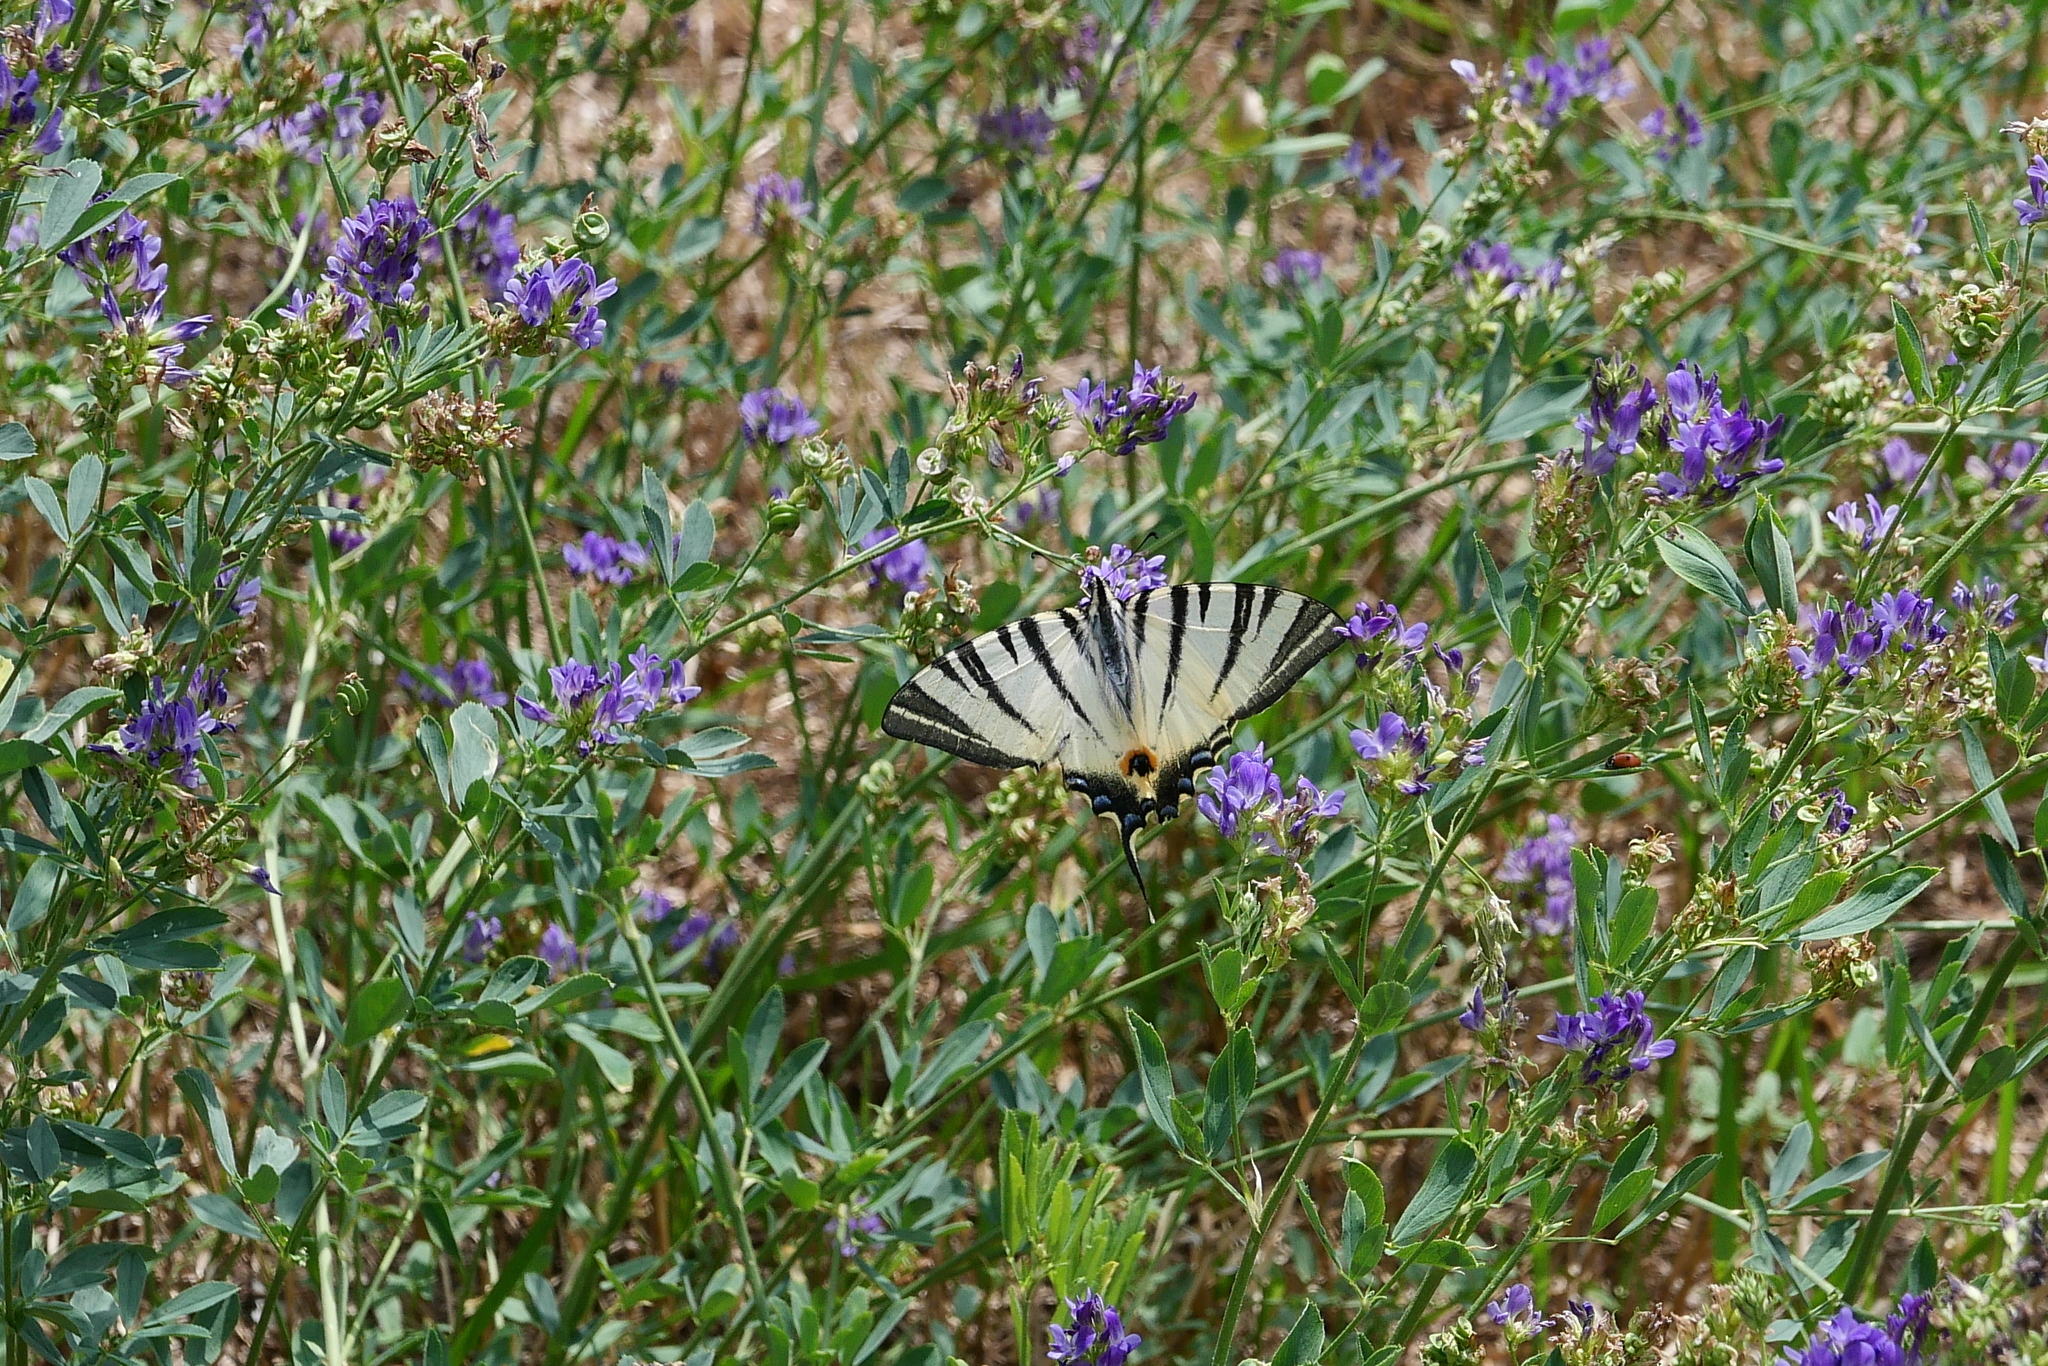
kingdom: Animalia
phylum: Arthropoda
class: Insecta
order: Lepidoptera
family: Papilionidae
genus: Iphiclides
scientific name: Iphiclides podalirius
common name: Scarce swallowtail
